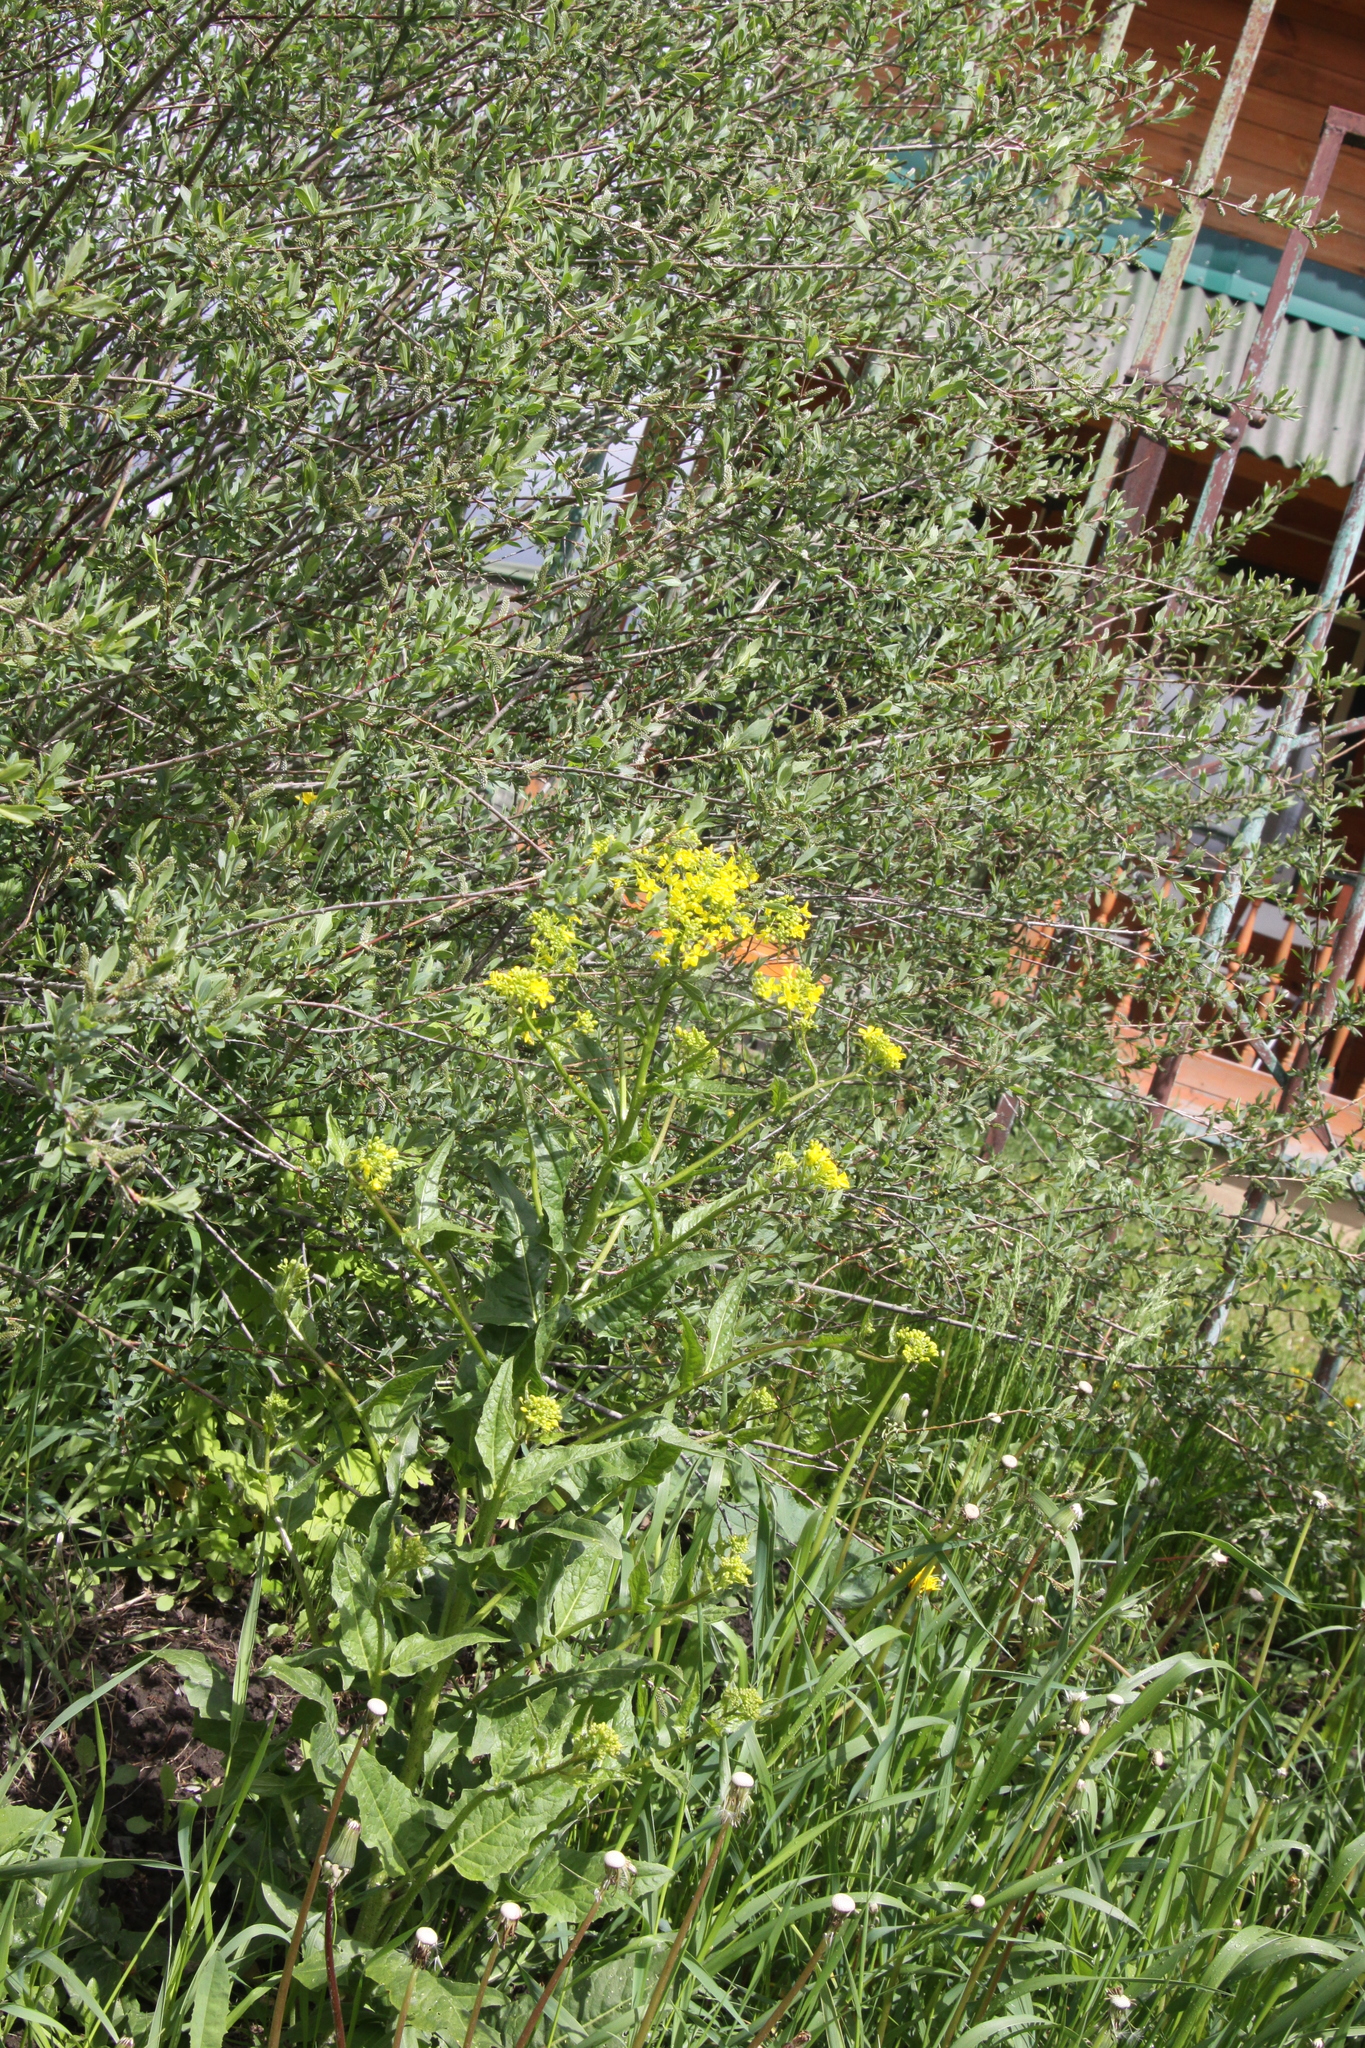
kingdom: Plantae
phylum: Tracheophyta
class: Magnoliopsida
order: Brassicales
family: Brassicaceae
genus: Bunias
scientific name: Bunias orientalis
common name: Warty-cabbage
